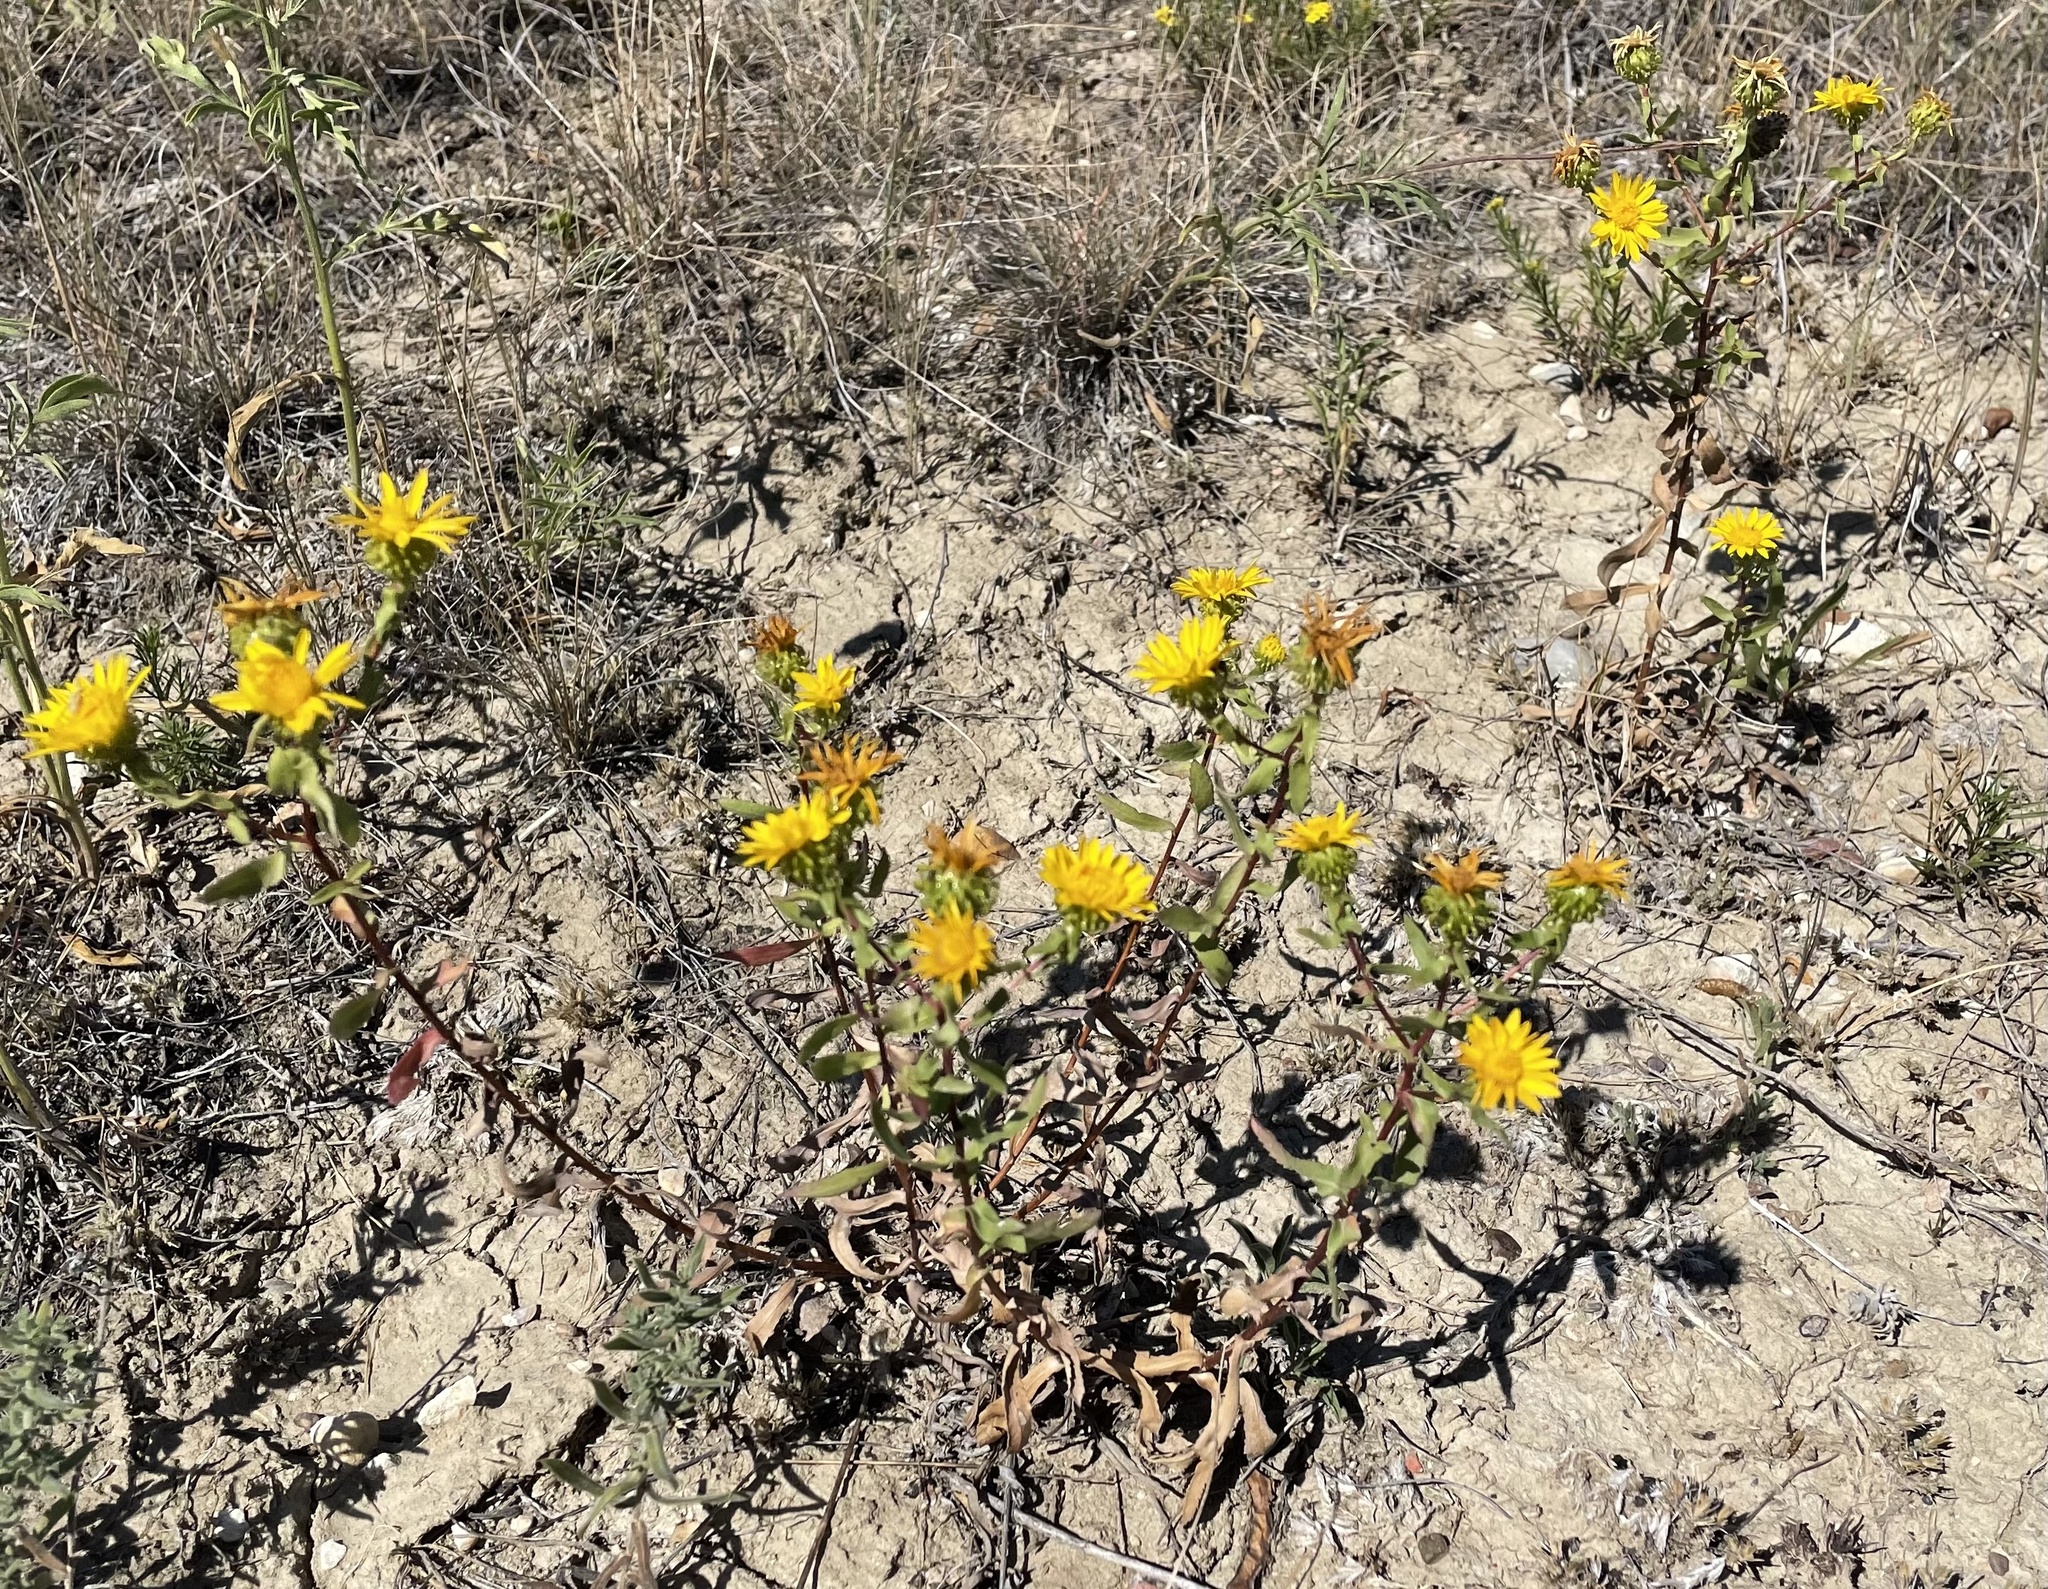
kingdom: Plantae
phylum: Tracheophyta
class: Magnoliopsida
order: Asterales
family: Asteraceae
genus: Grindelia
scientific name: Grindelia squarrosa
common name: Curly-cup gumweed
